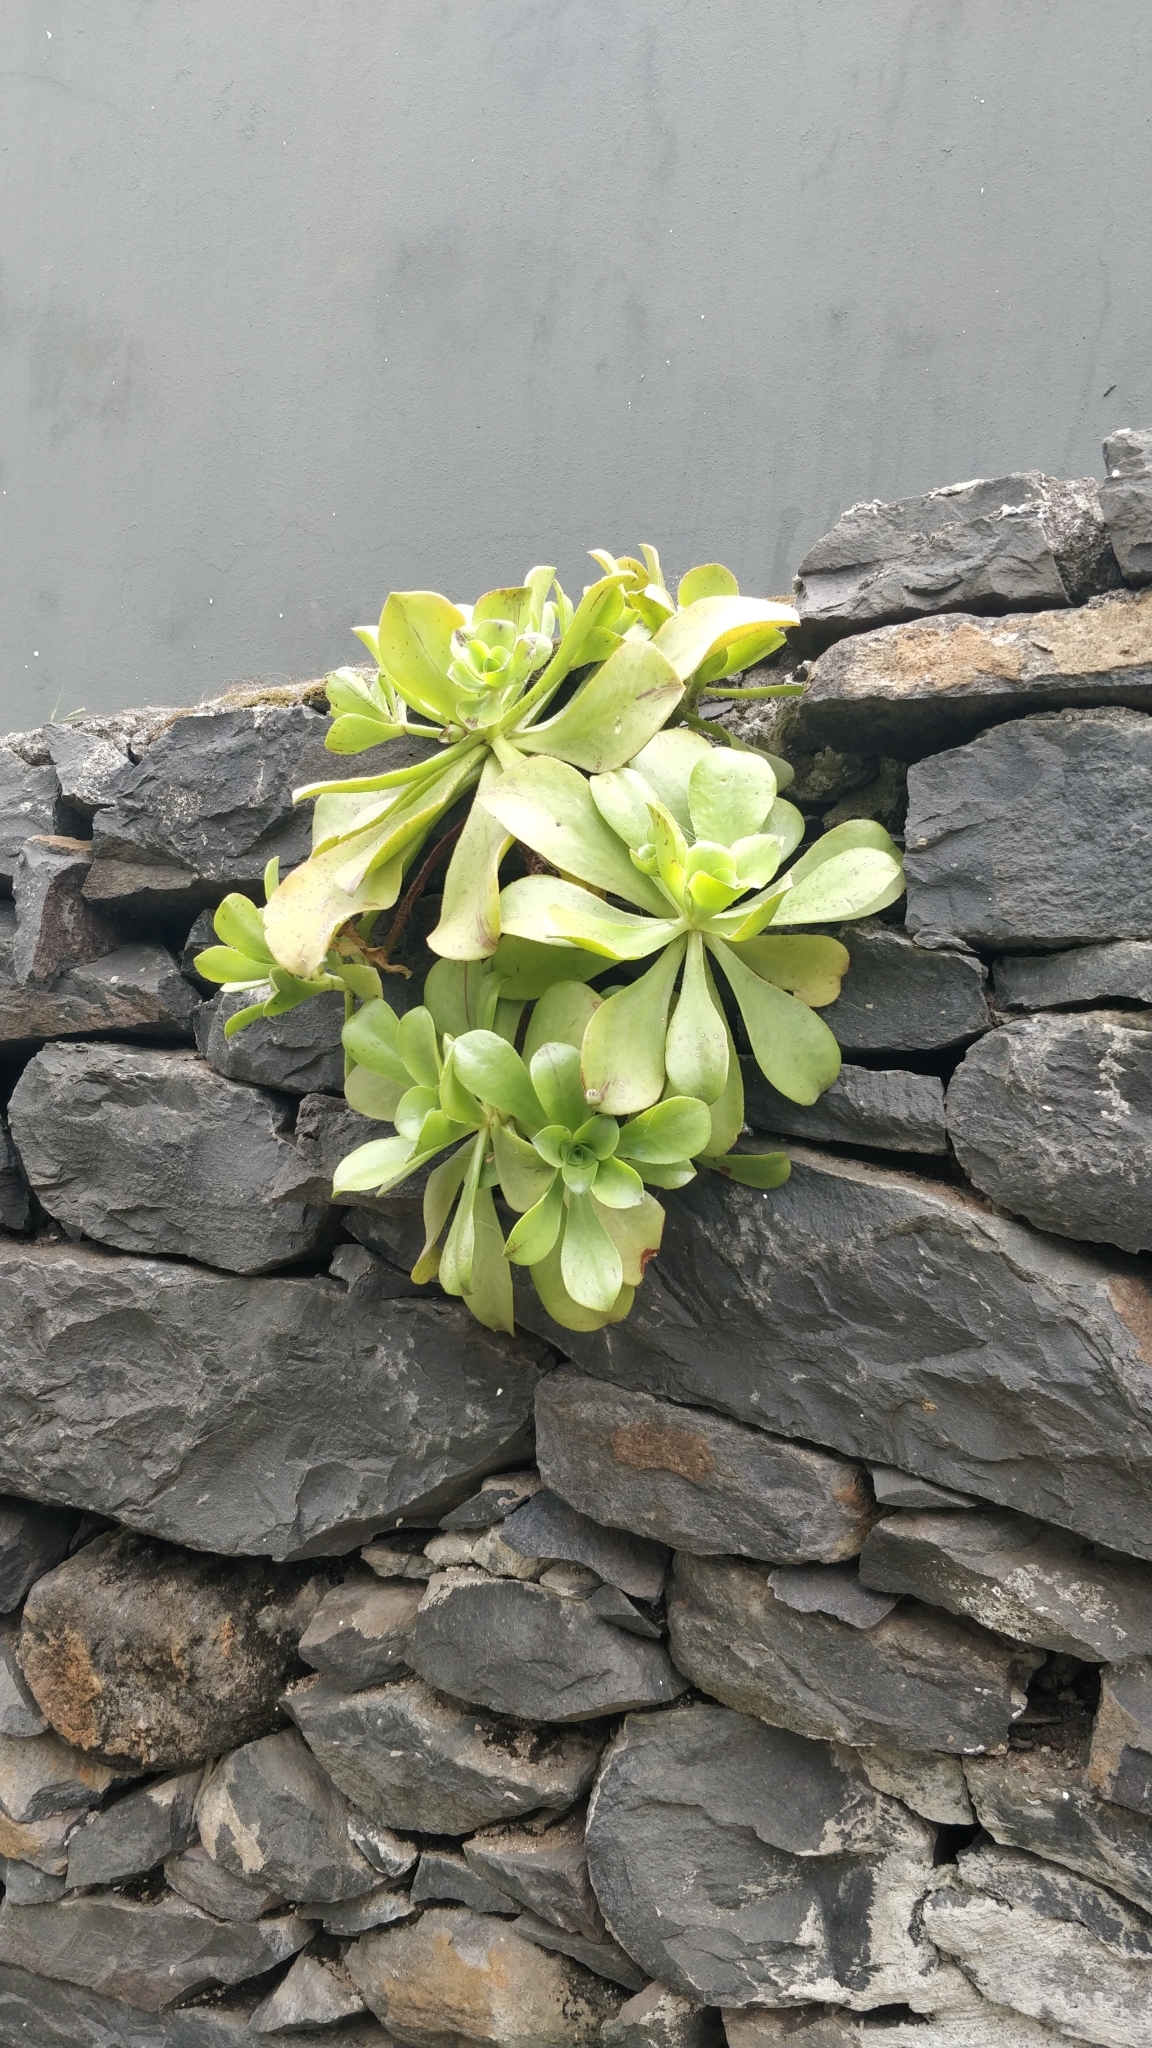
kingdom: Plantae
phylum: Tracheophyta
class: Magnoliopsida
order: Saxifragales
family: Crassulaceae
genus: Aeonium
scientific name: Aeonium glutinosum
